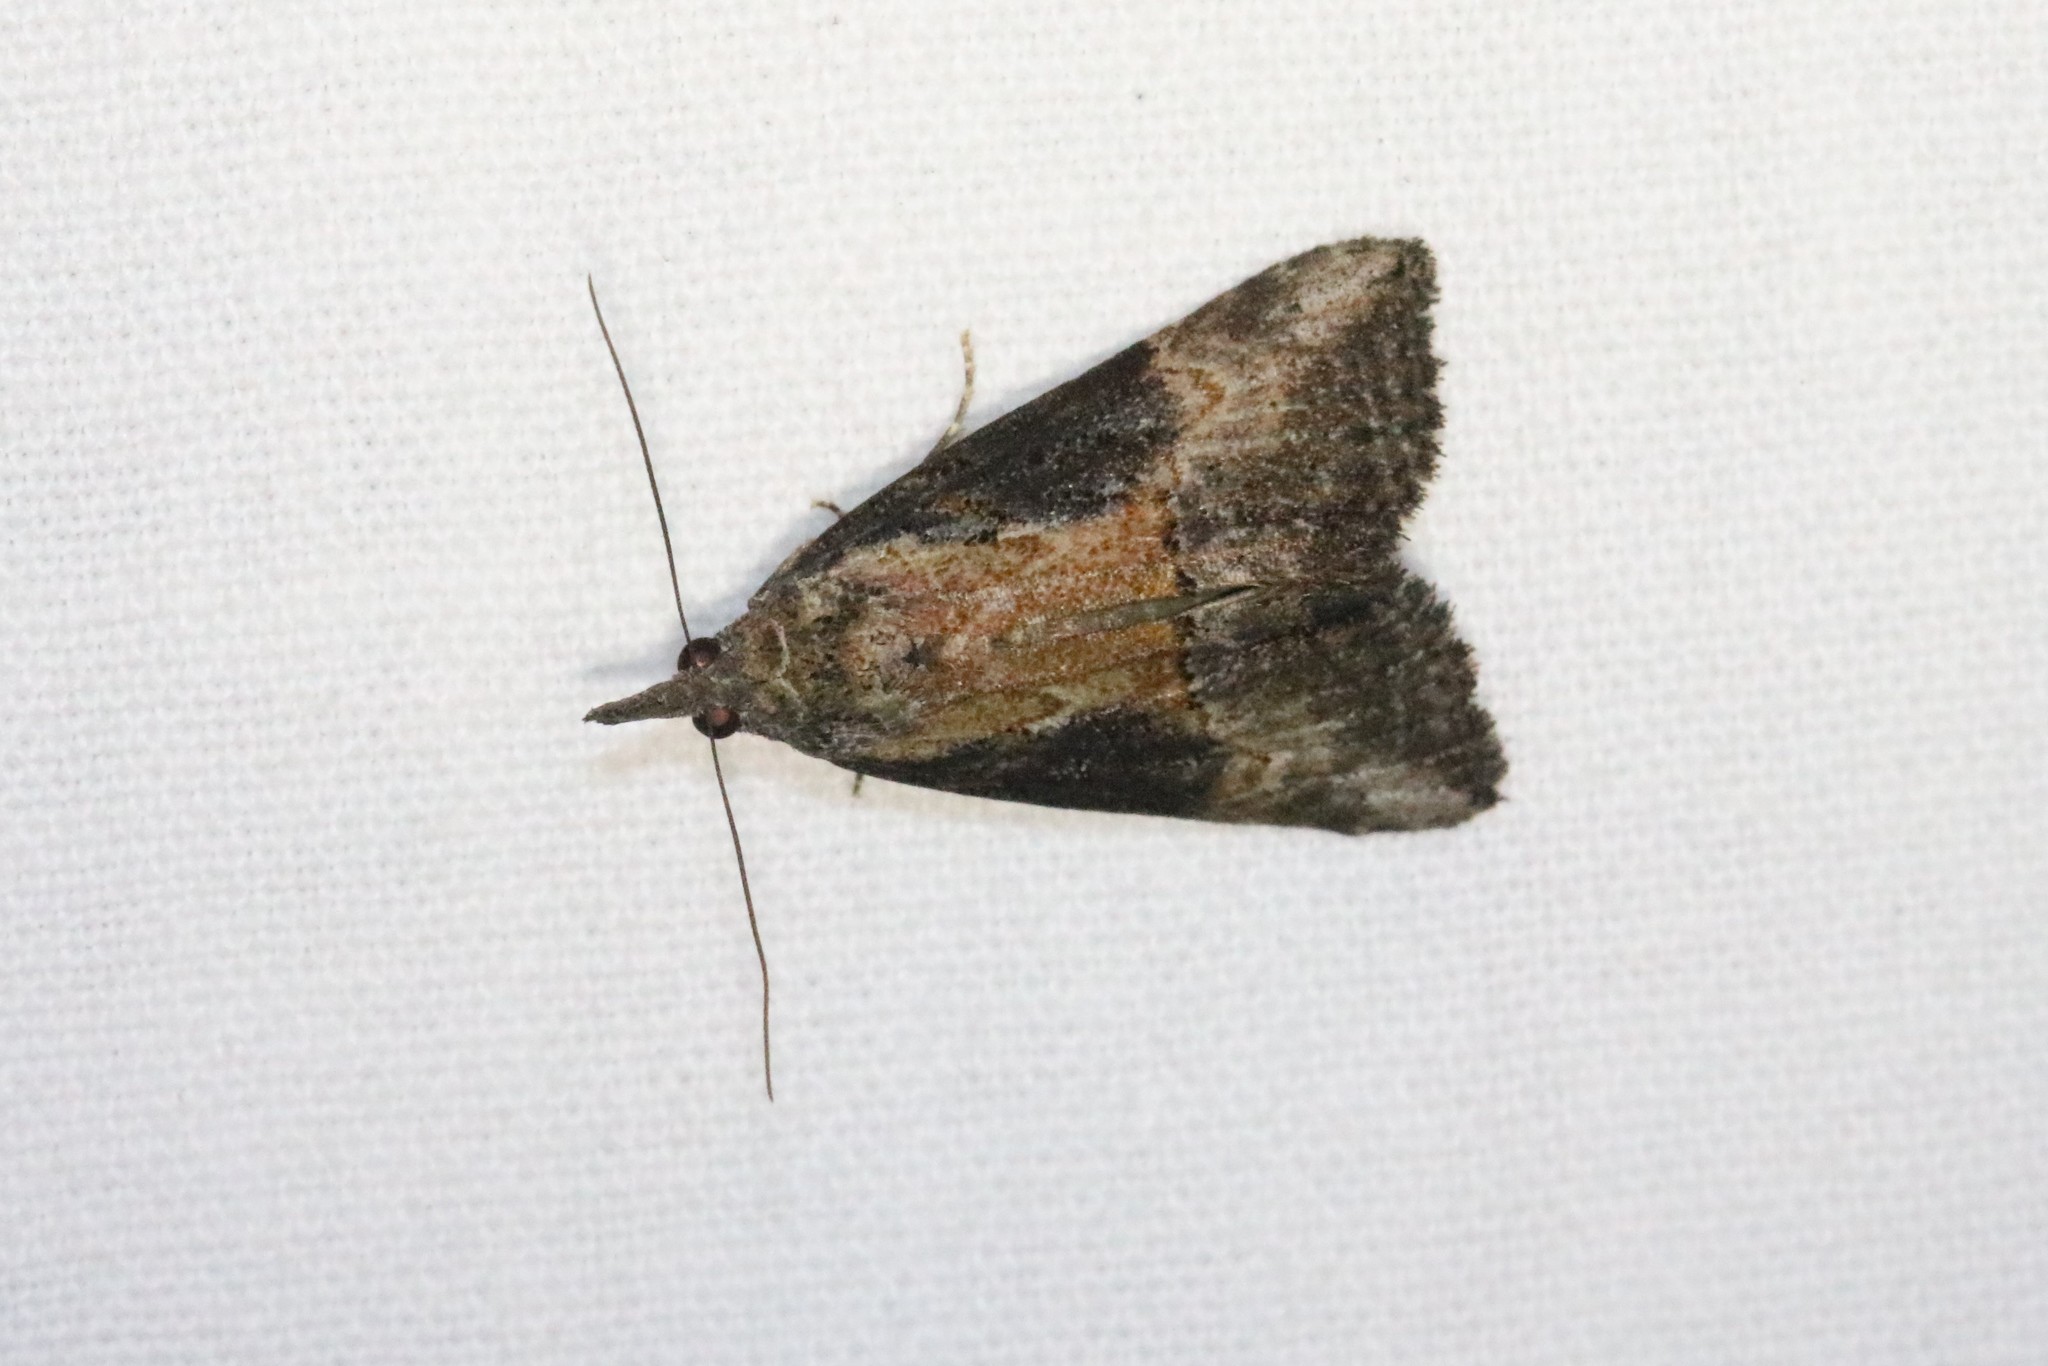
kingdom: Animalia
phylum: Arthropoda
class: Insecta
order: Lepidoptera
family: Erebidae
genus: Hypena
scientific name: Hypena scabra
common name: Green cloverworm
